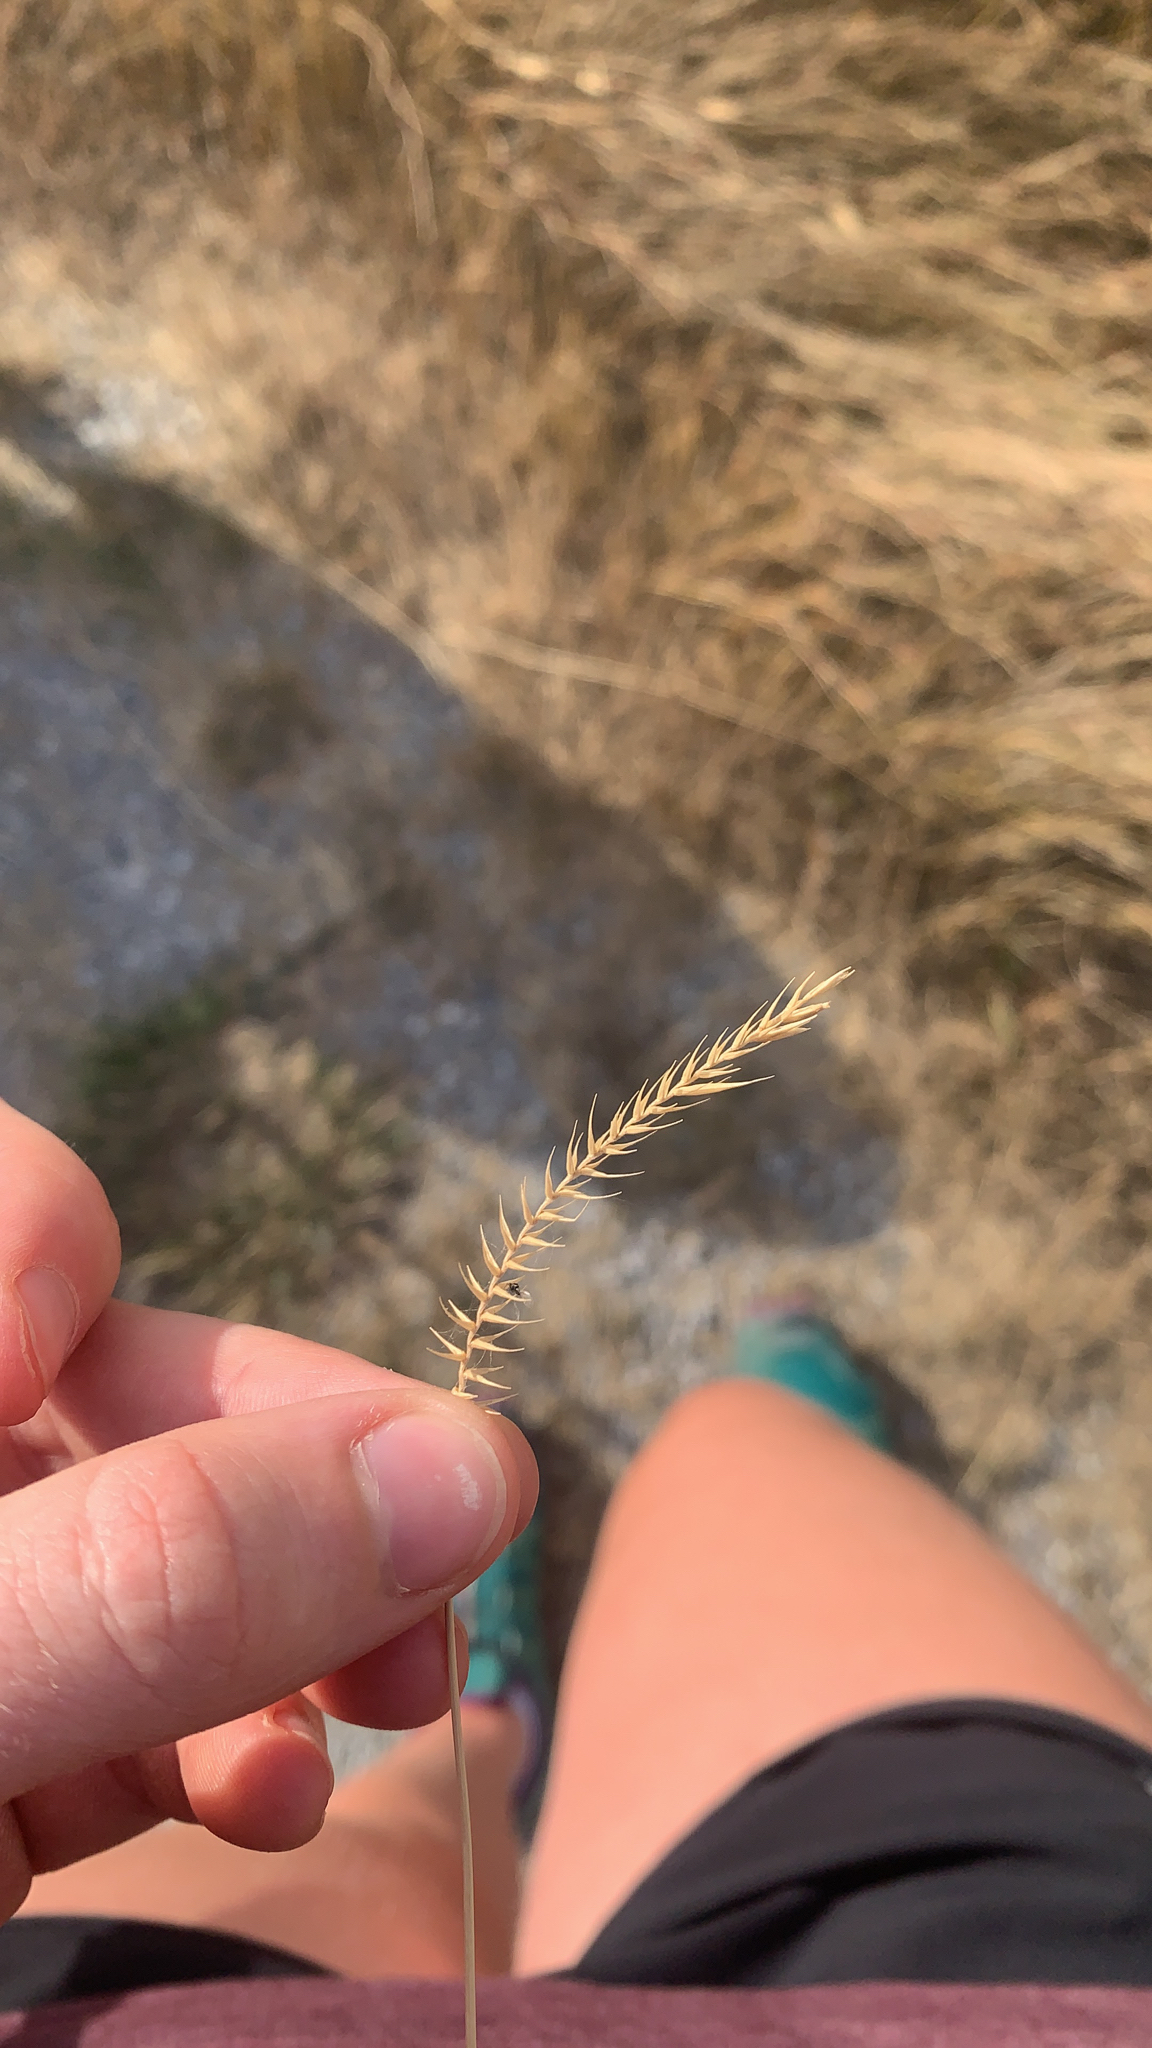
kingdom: Plantae
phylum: Tracheophyta
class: Liliopsida
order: Poales
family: Poaceae
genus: Agropyron
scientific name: Agropyron cristatum
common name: Crested wheatgrass
